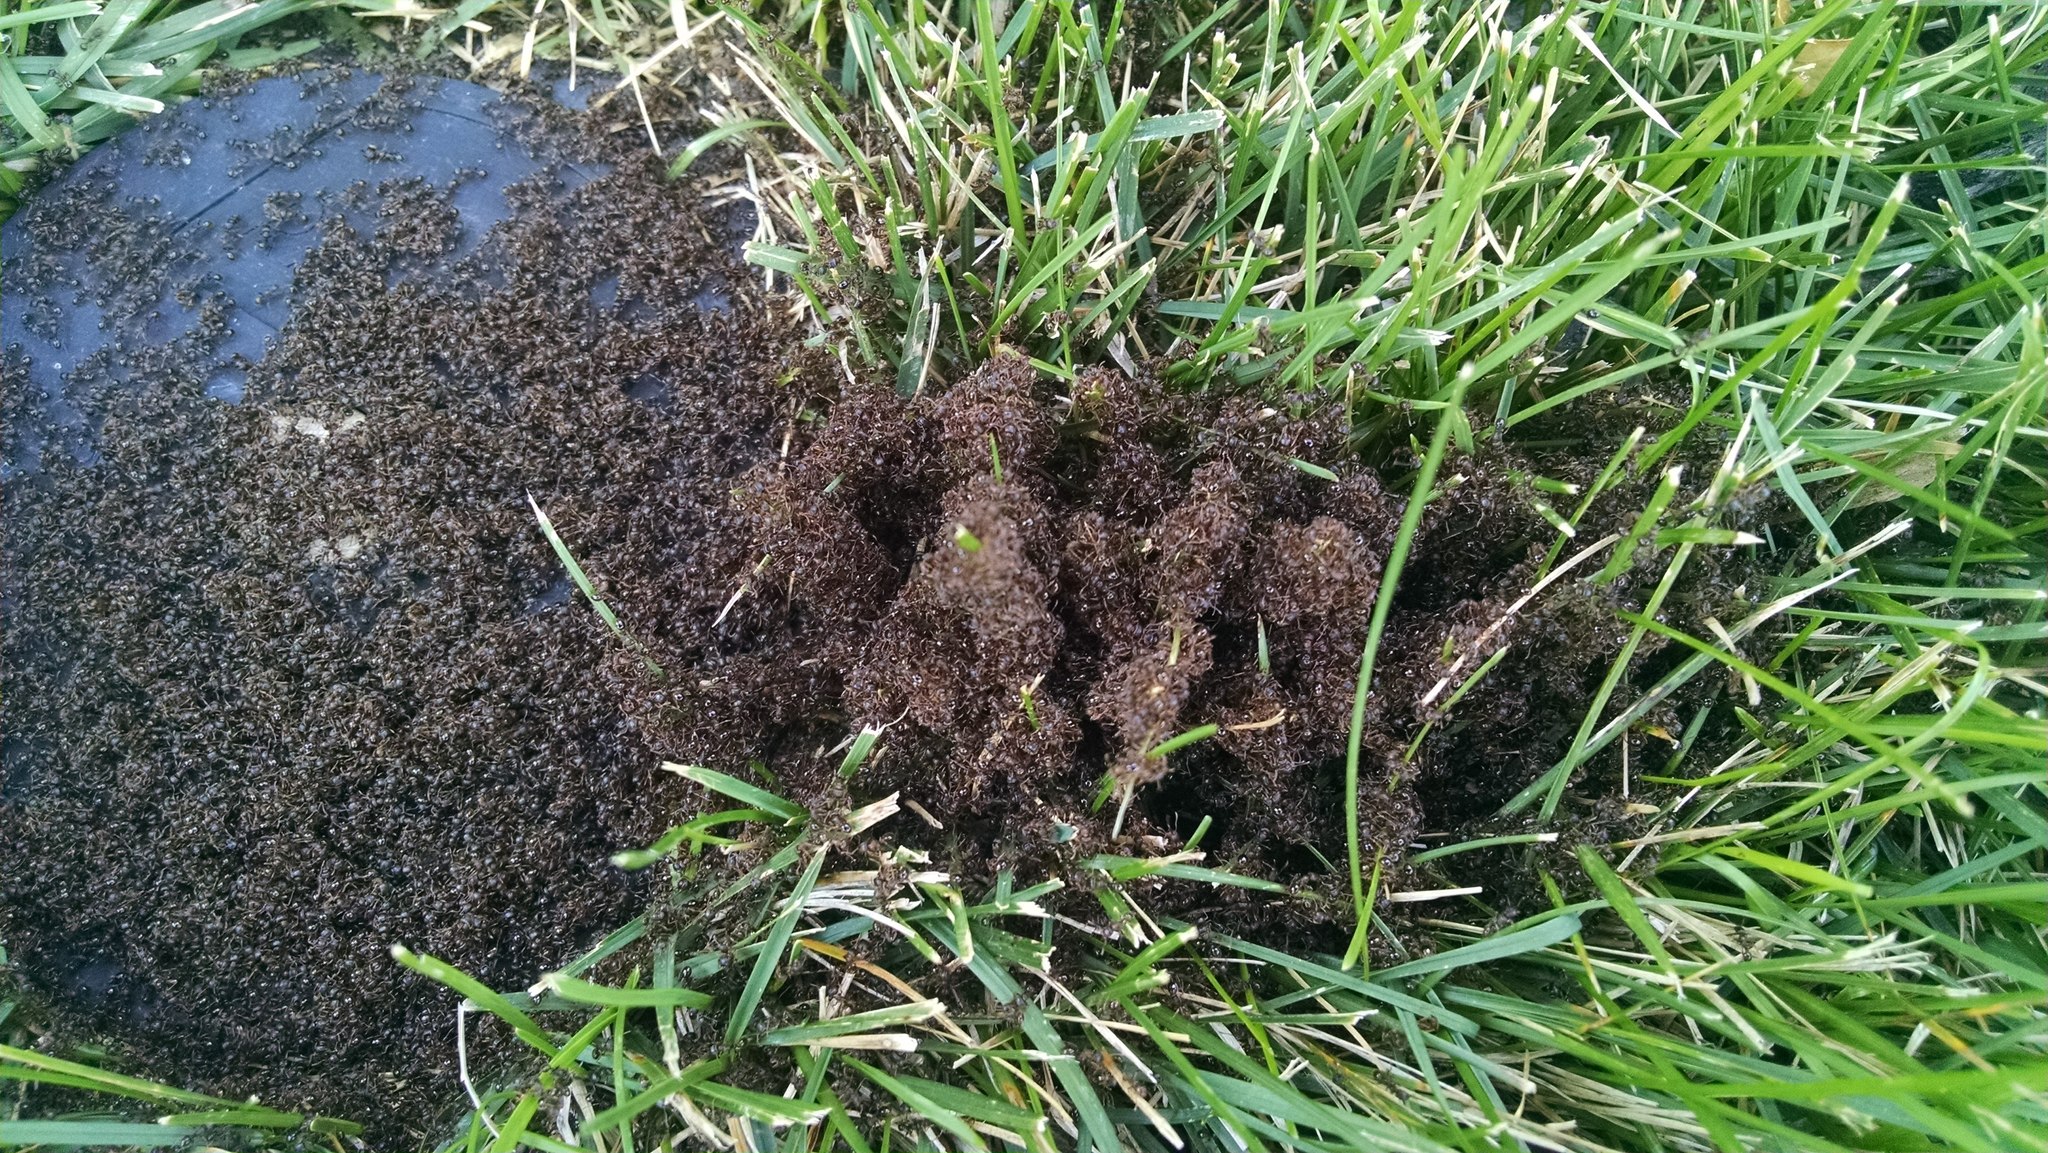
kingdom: Animalia
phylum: Arthropoda
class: Insecta
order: Hymenoptera
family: Formicidae
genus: Tetramorium
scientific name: Tetramorium immigrans
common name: Pavement ant
